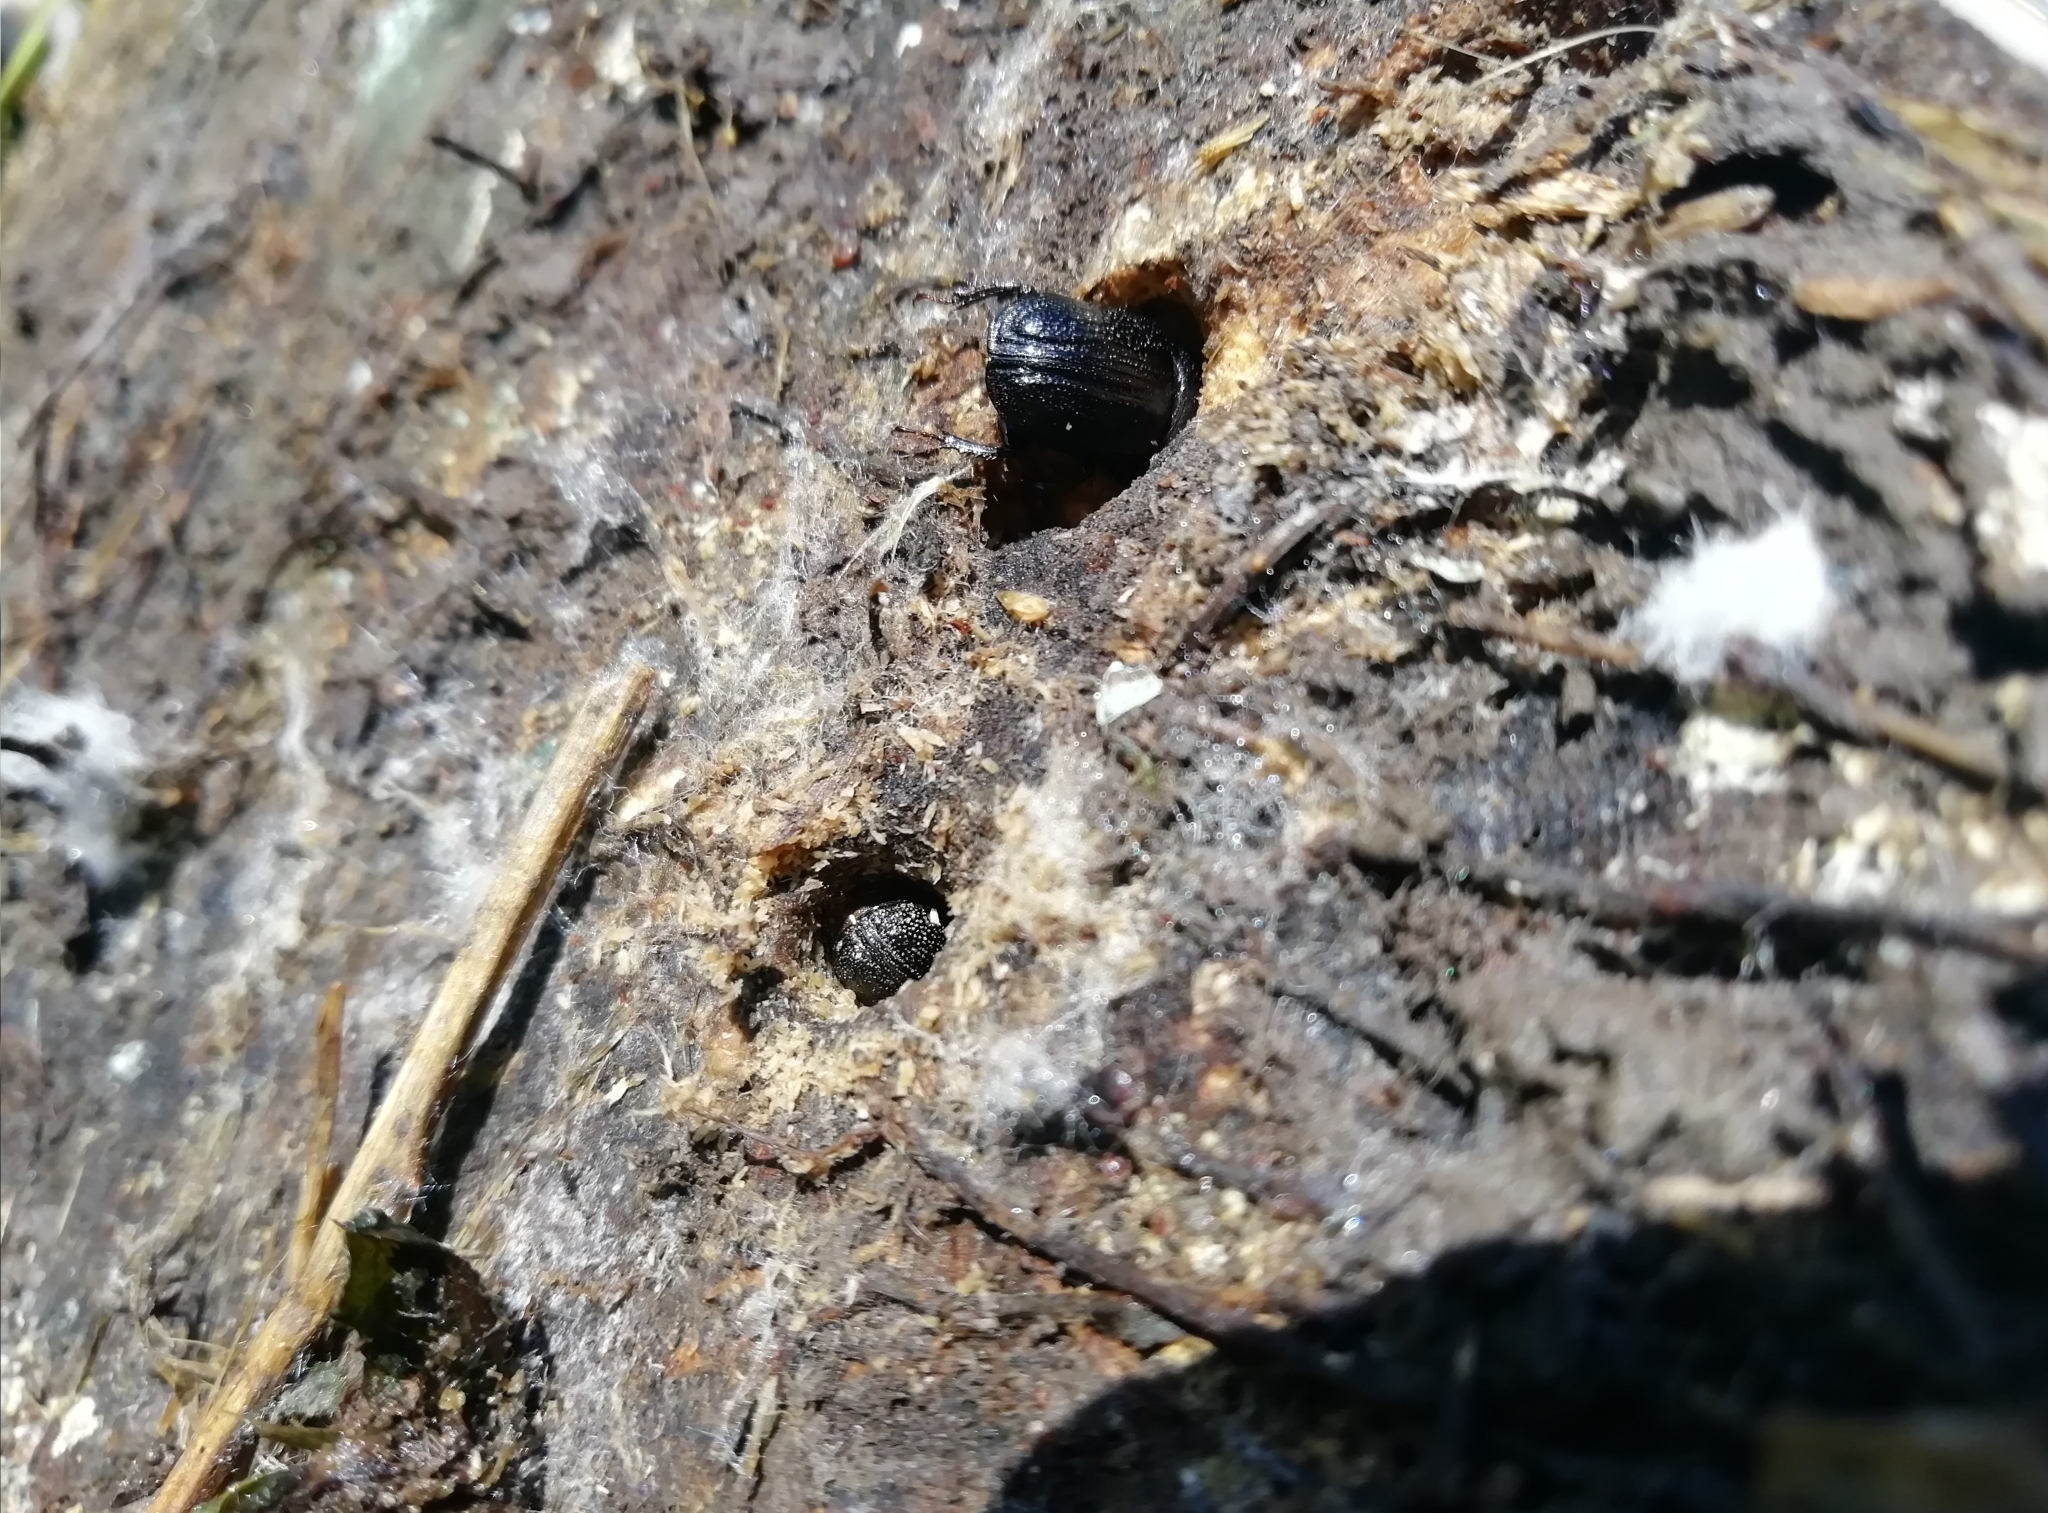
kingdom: Animalia
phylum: Arthropoda
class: Insecta
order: Coleoptera
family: Lucanidae
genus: Sinodendron
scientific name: Sinodendron cylindricum
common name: Rhinoceros beetle
